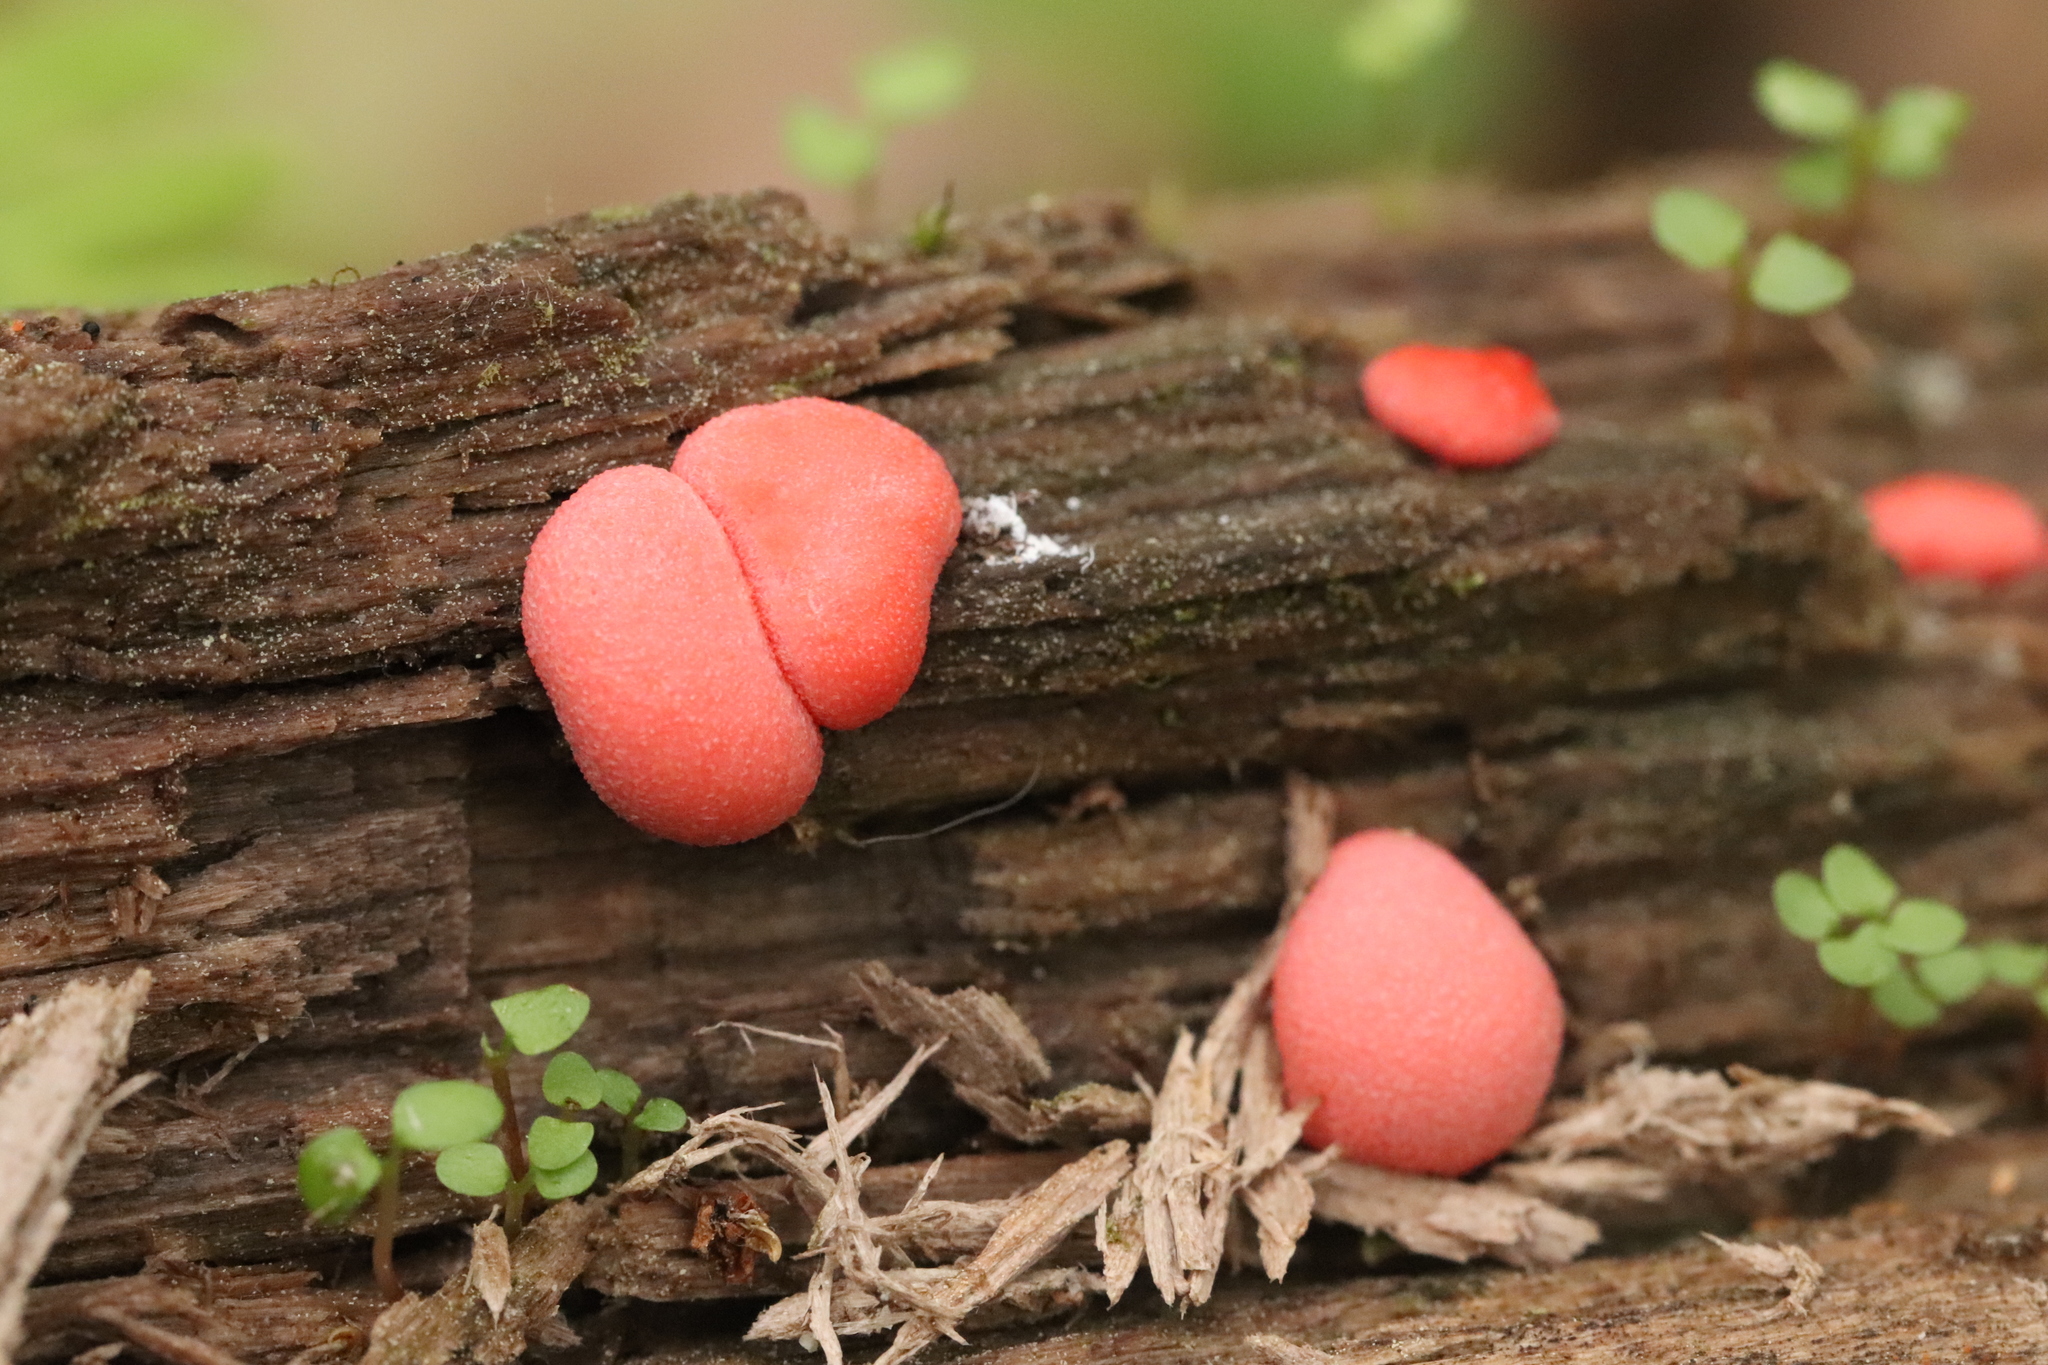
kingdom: Protozoa
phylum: Mycetozoa
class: Myxomycetes
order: Cribrariales
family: Tubiferaceae
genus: Lycogala
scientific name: Lycogala epidendrum
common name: Wolf's milk
